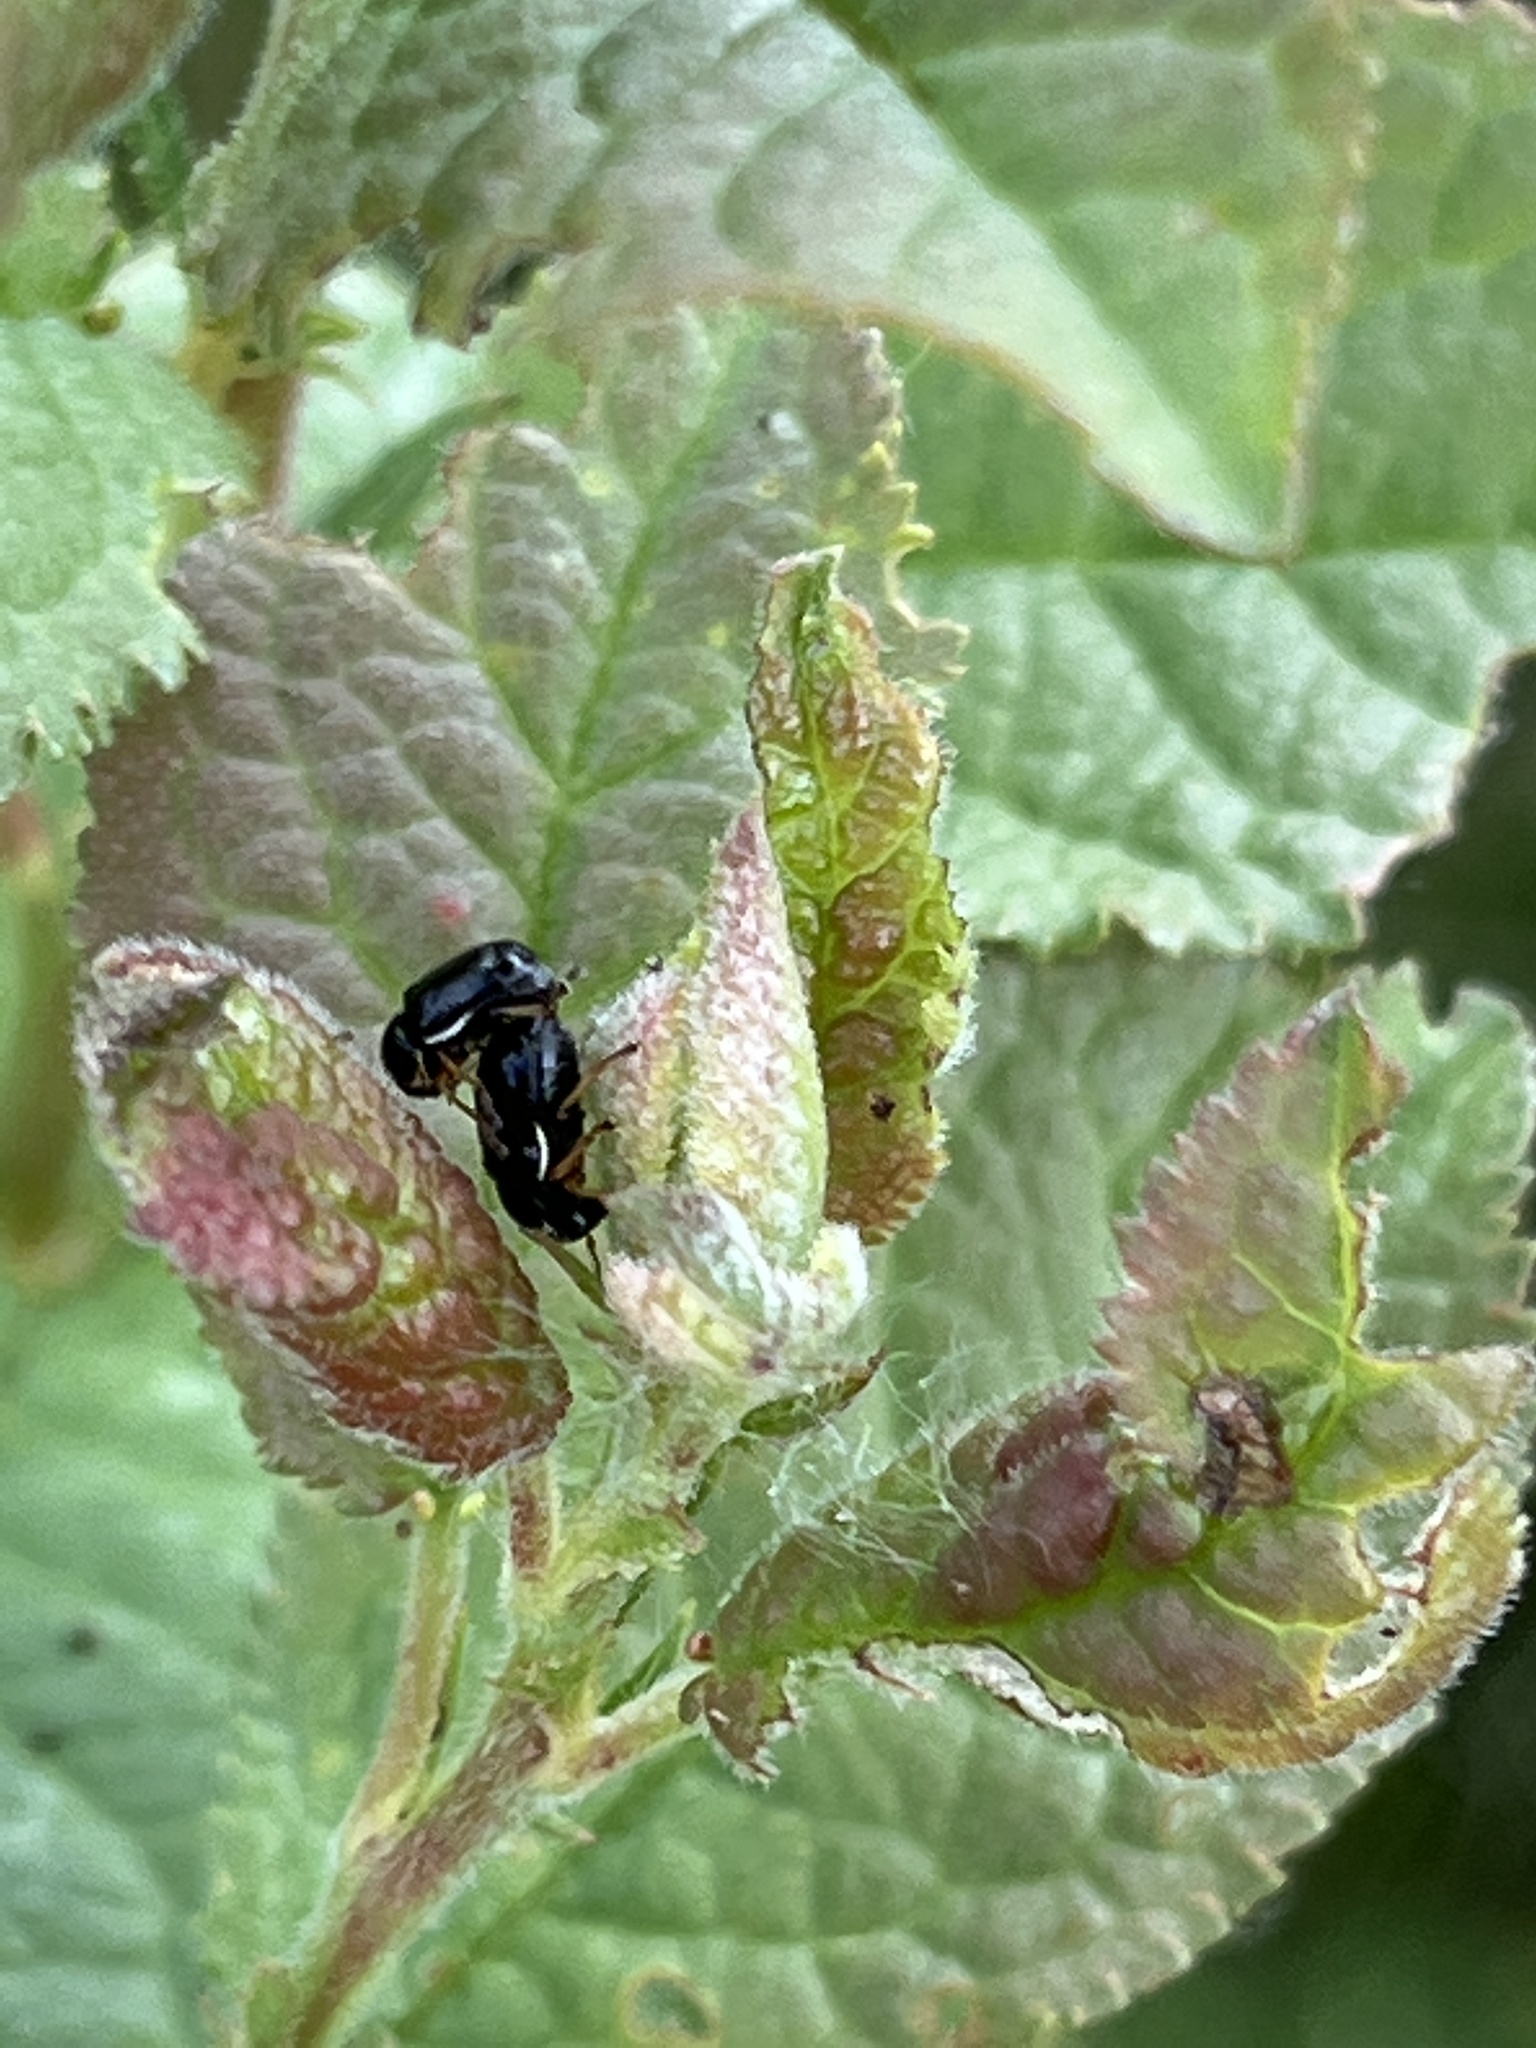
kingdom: Animalia
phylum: Arthropoda
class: Insecta
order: Coleoptera
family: Chrysomelidae
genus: Cryptocephalus
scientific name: Cryptocephalus flavipes
